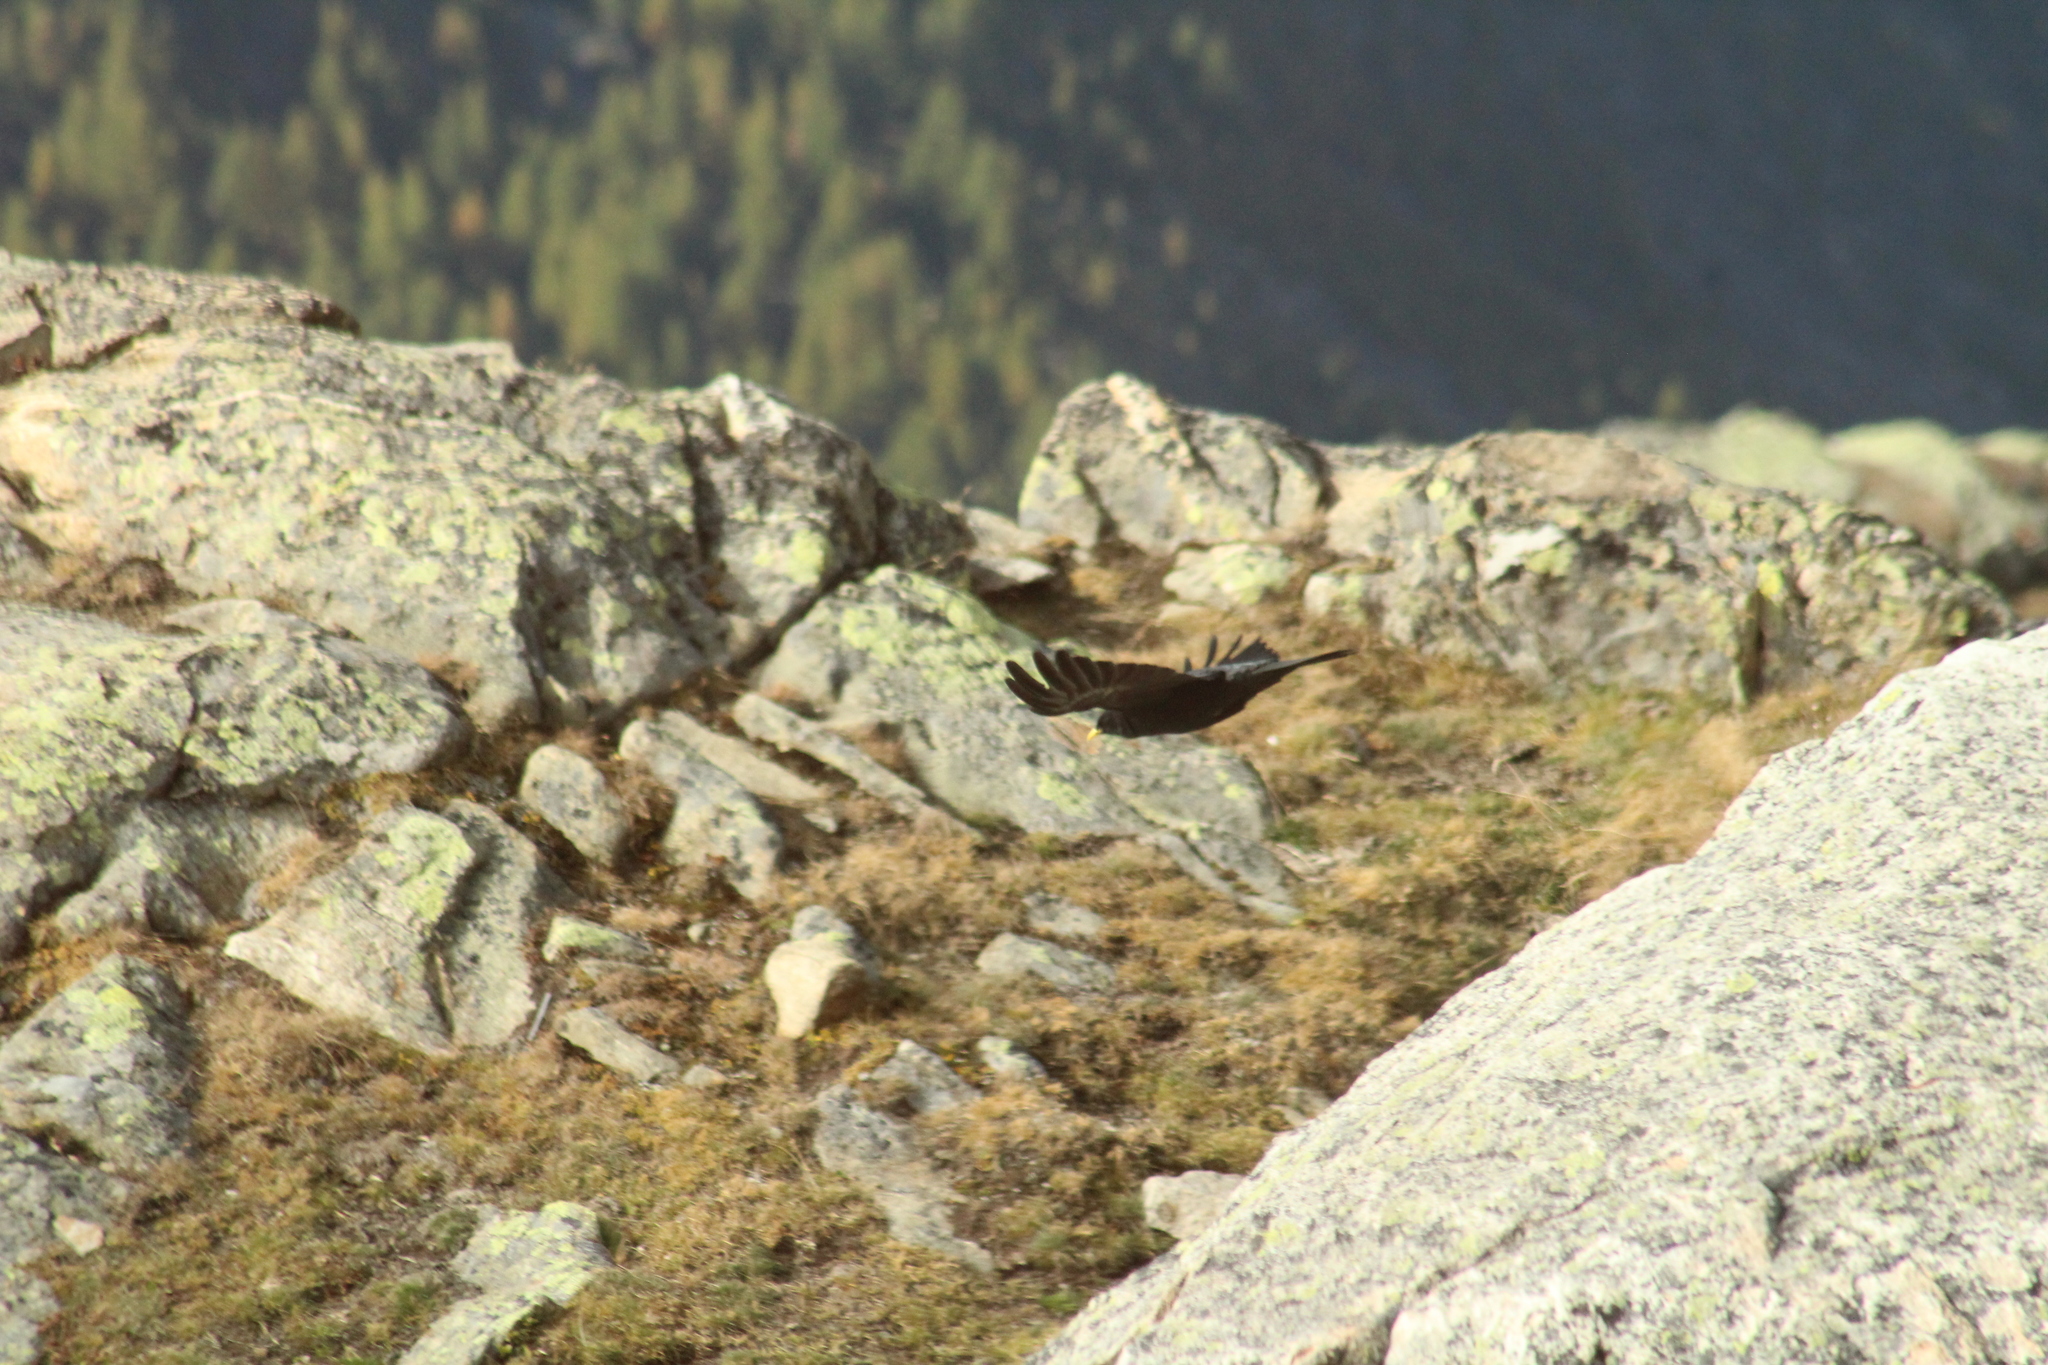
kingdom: Animalia
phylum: Chordata
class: Aves
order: Passeriformes
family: Corvidae
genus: Pyrrhocorax
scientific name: Pyrrhocorax graculus
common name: Alpine chough
